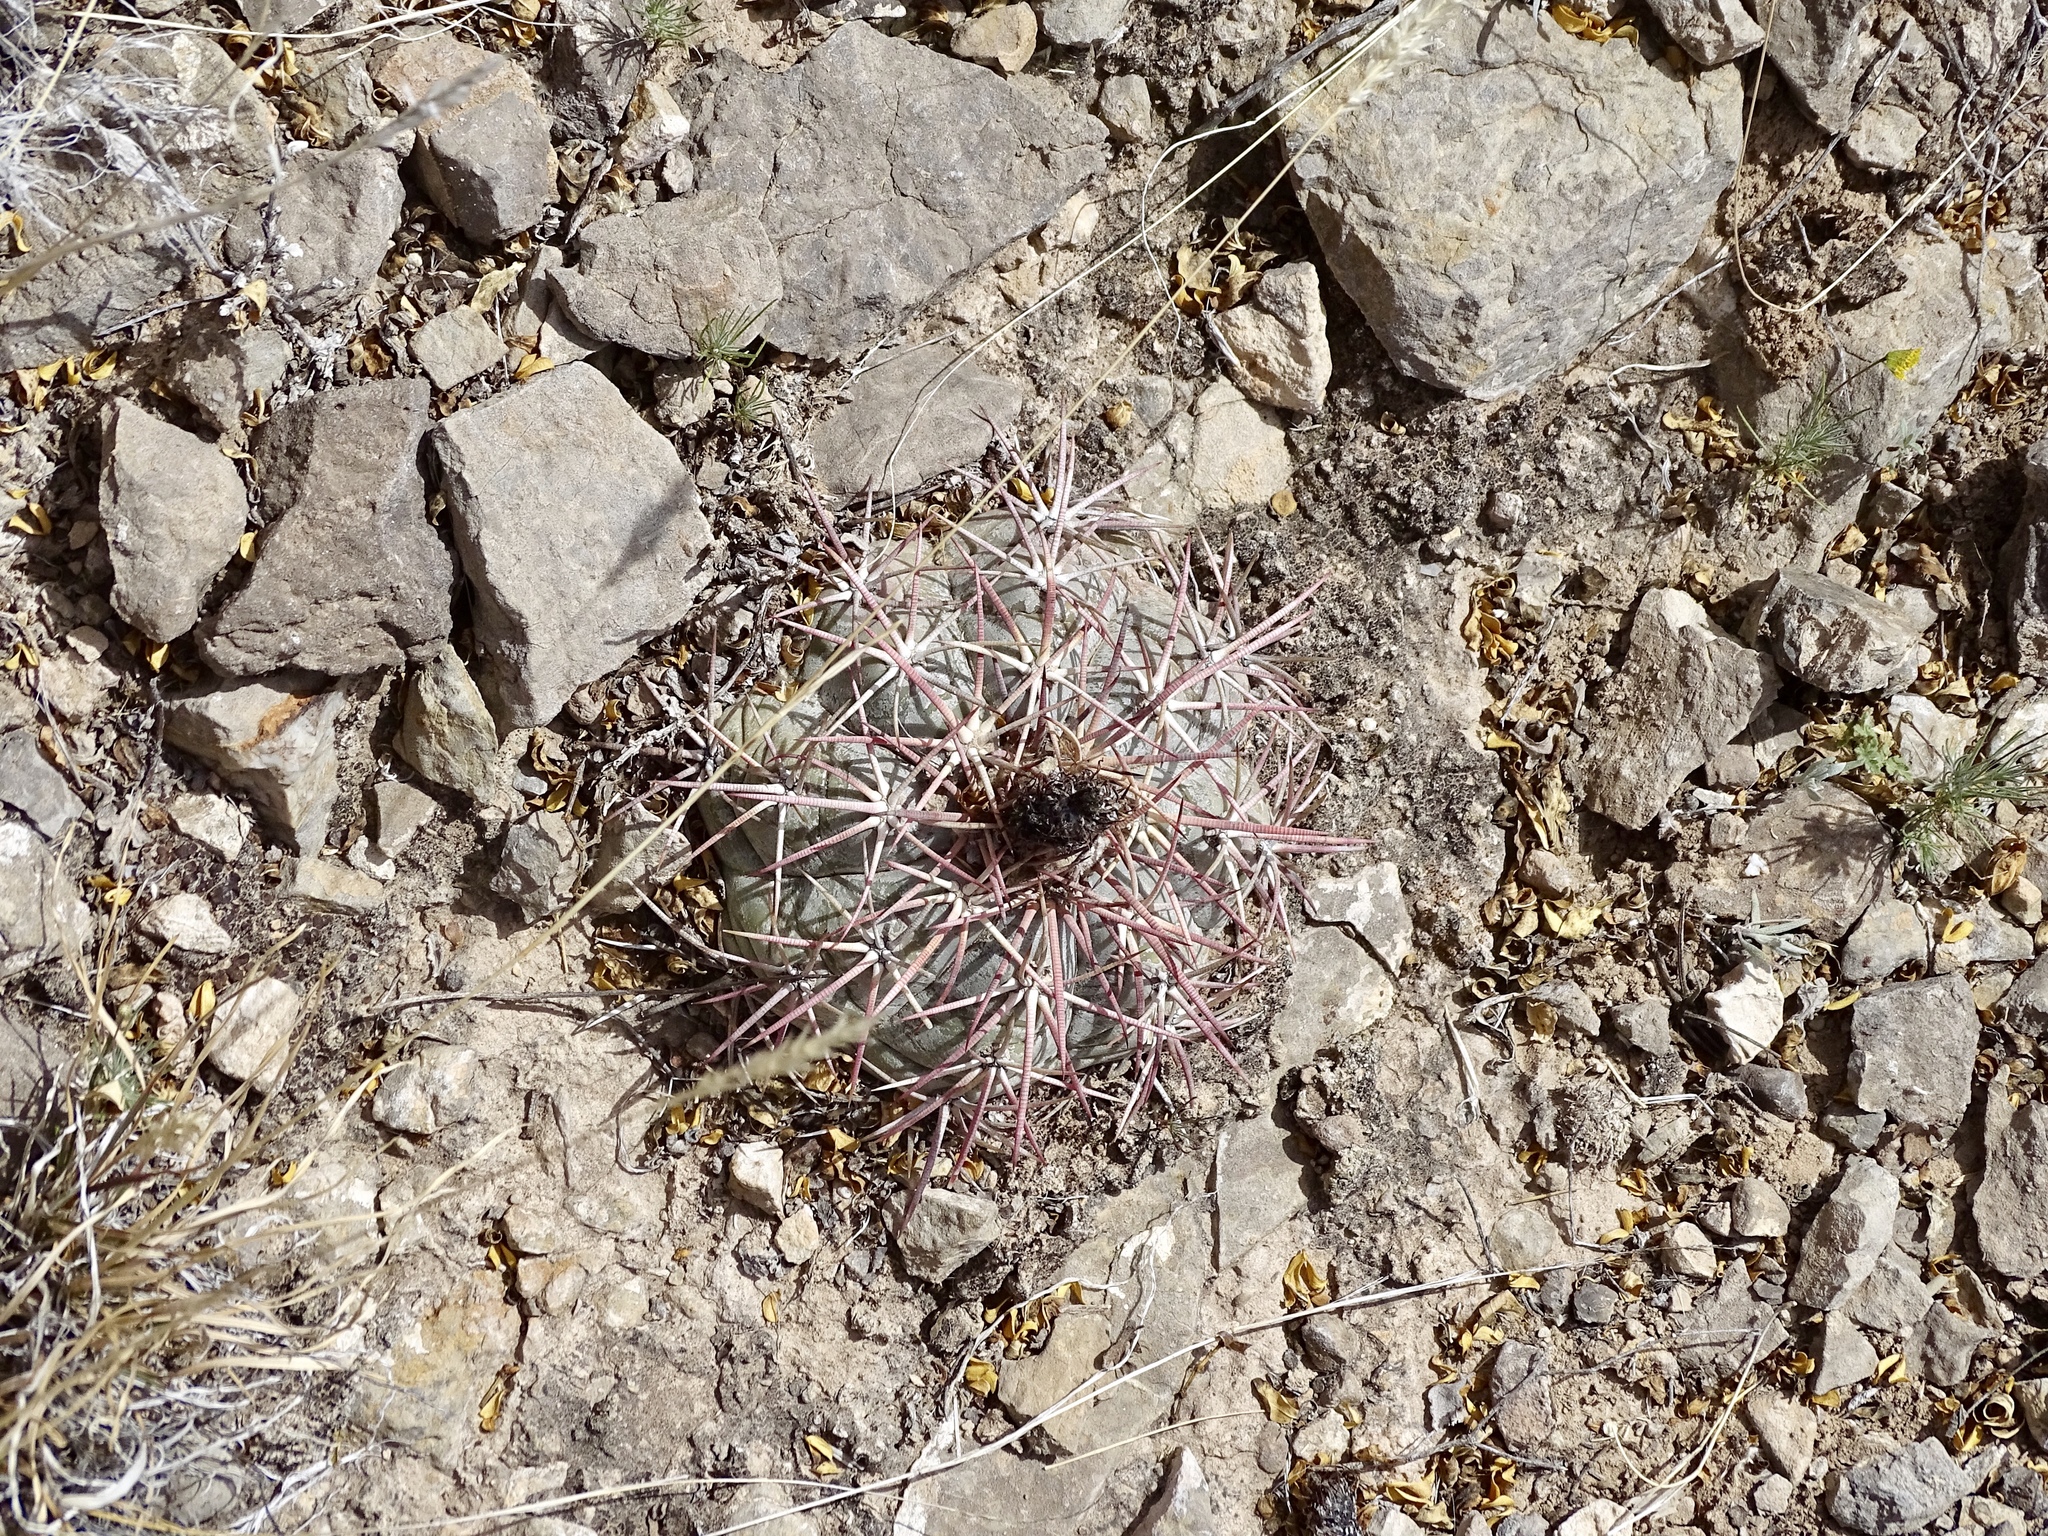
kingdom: Plantae
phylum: Tracheophyta
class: Magnoliopsida
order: Caryophyllales
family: Cactaceae
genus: Echinocactus
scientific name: Echinocactus horizonthalonius
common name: Devilshead
